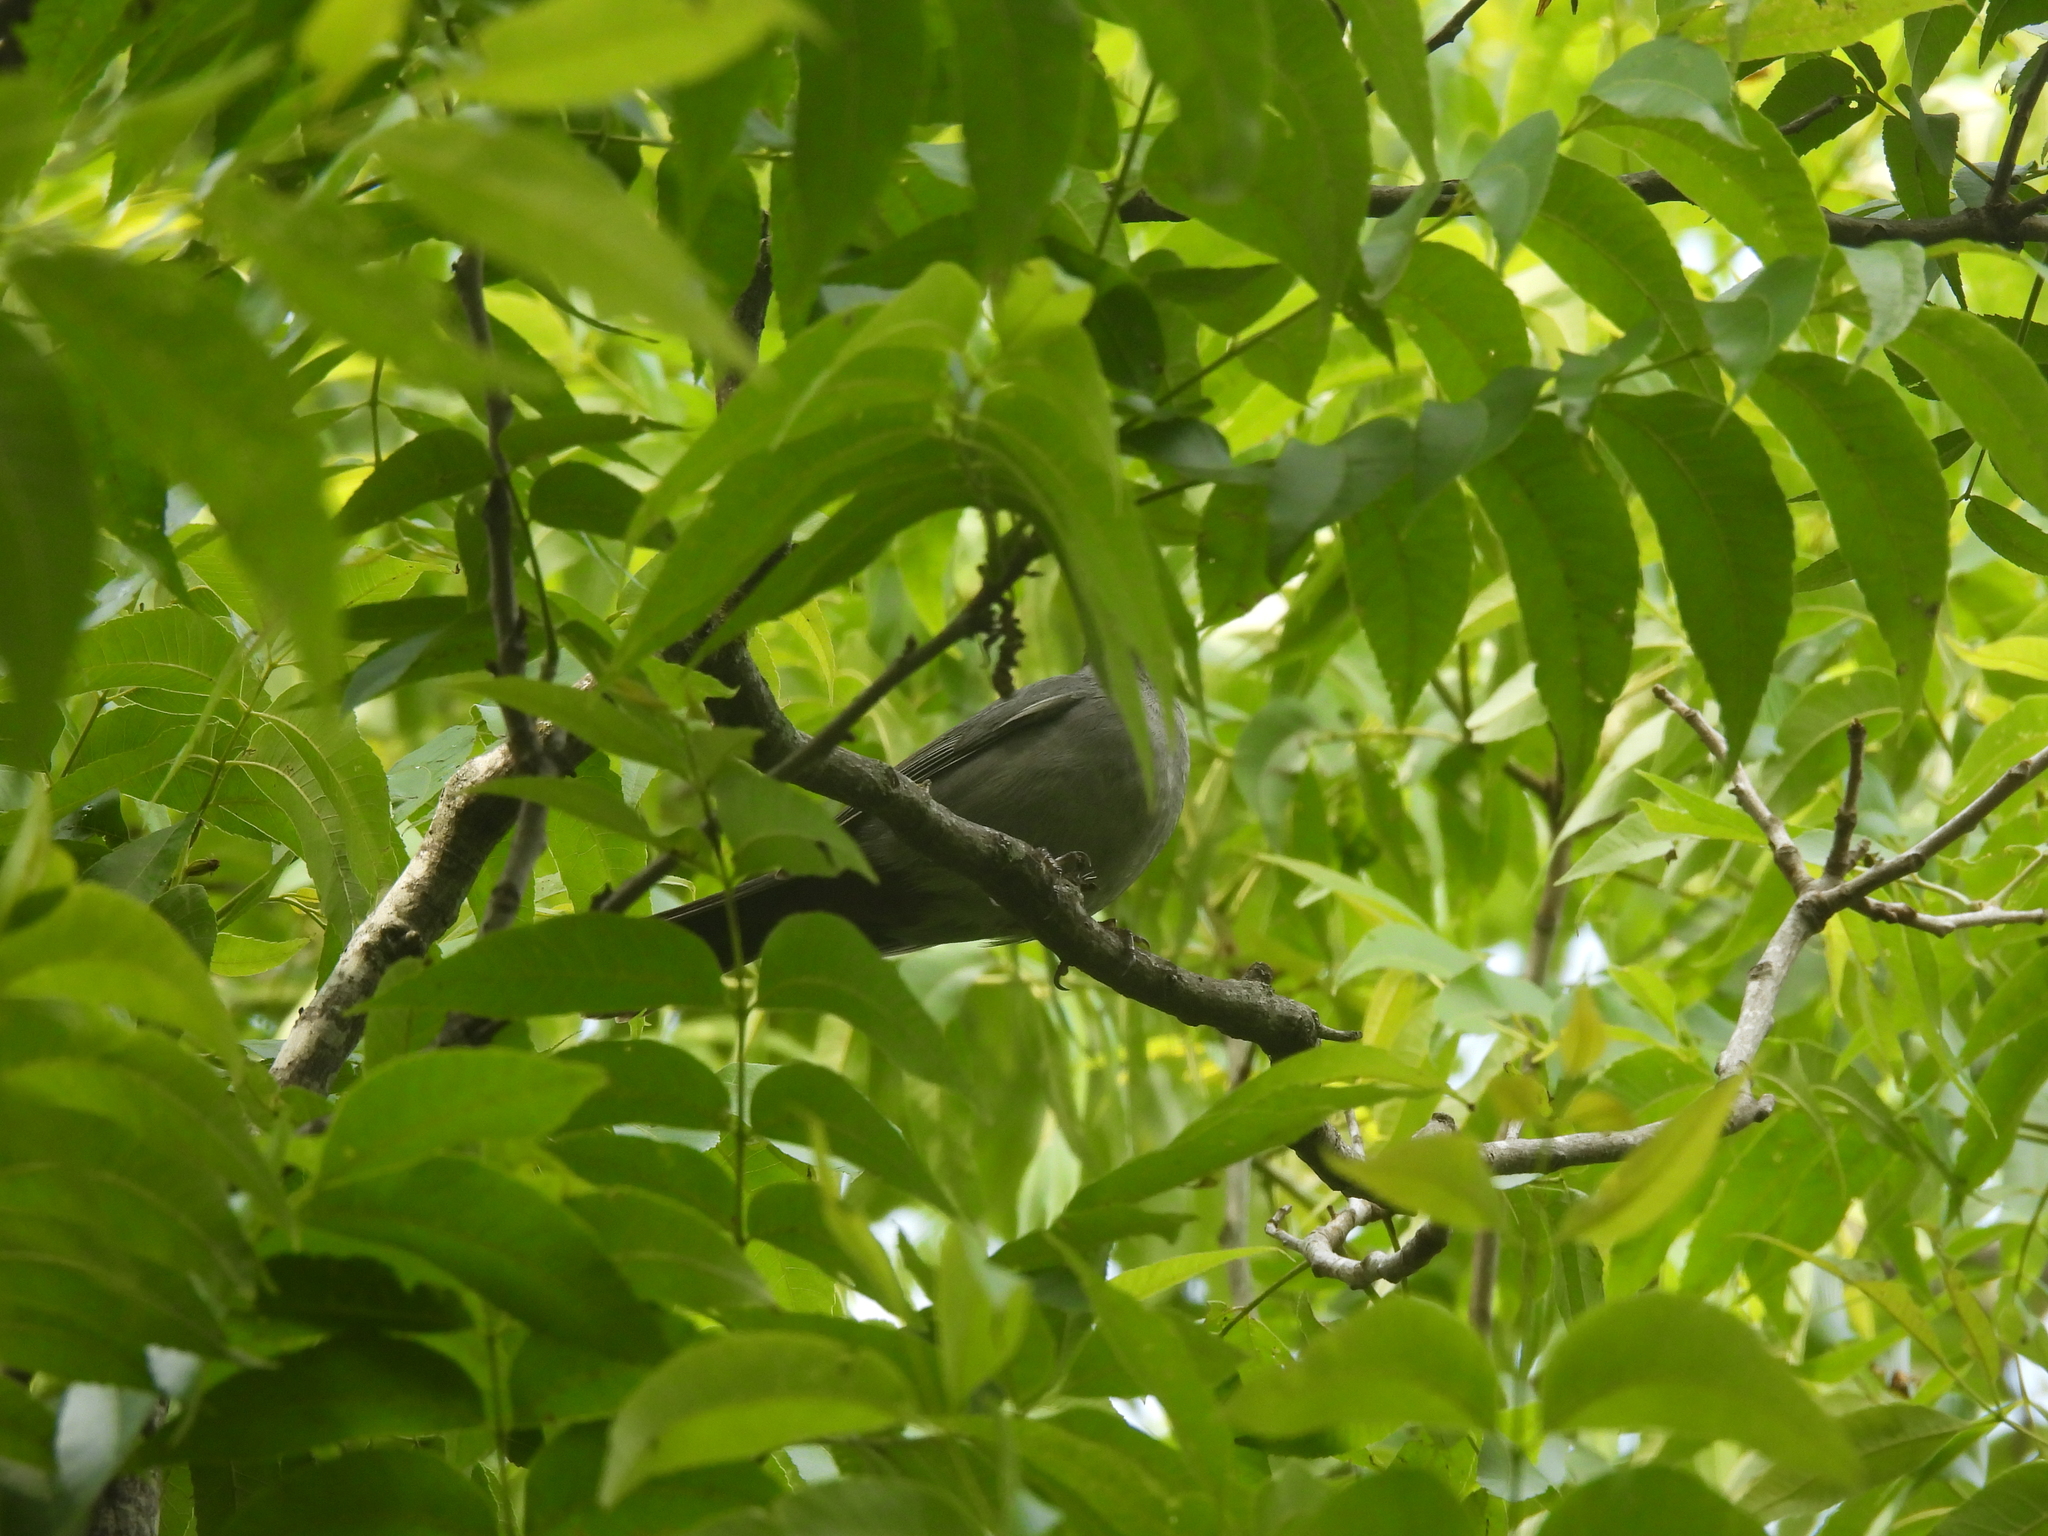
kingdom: Animalia
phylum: Chordata
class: Aves
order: Passeriformes
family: Mimidae
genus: Dumetella
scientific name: Dumetella carolinensis
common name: Gray catbird
